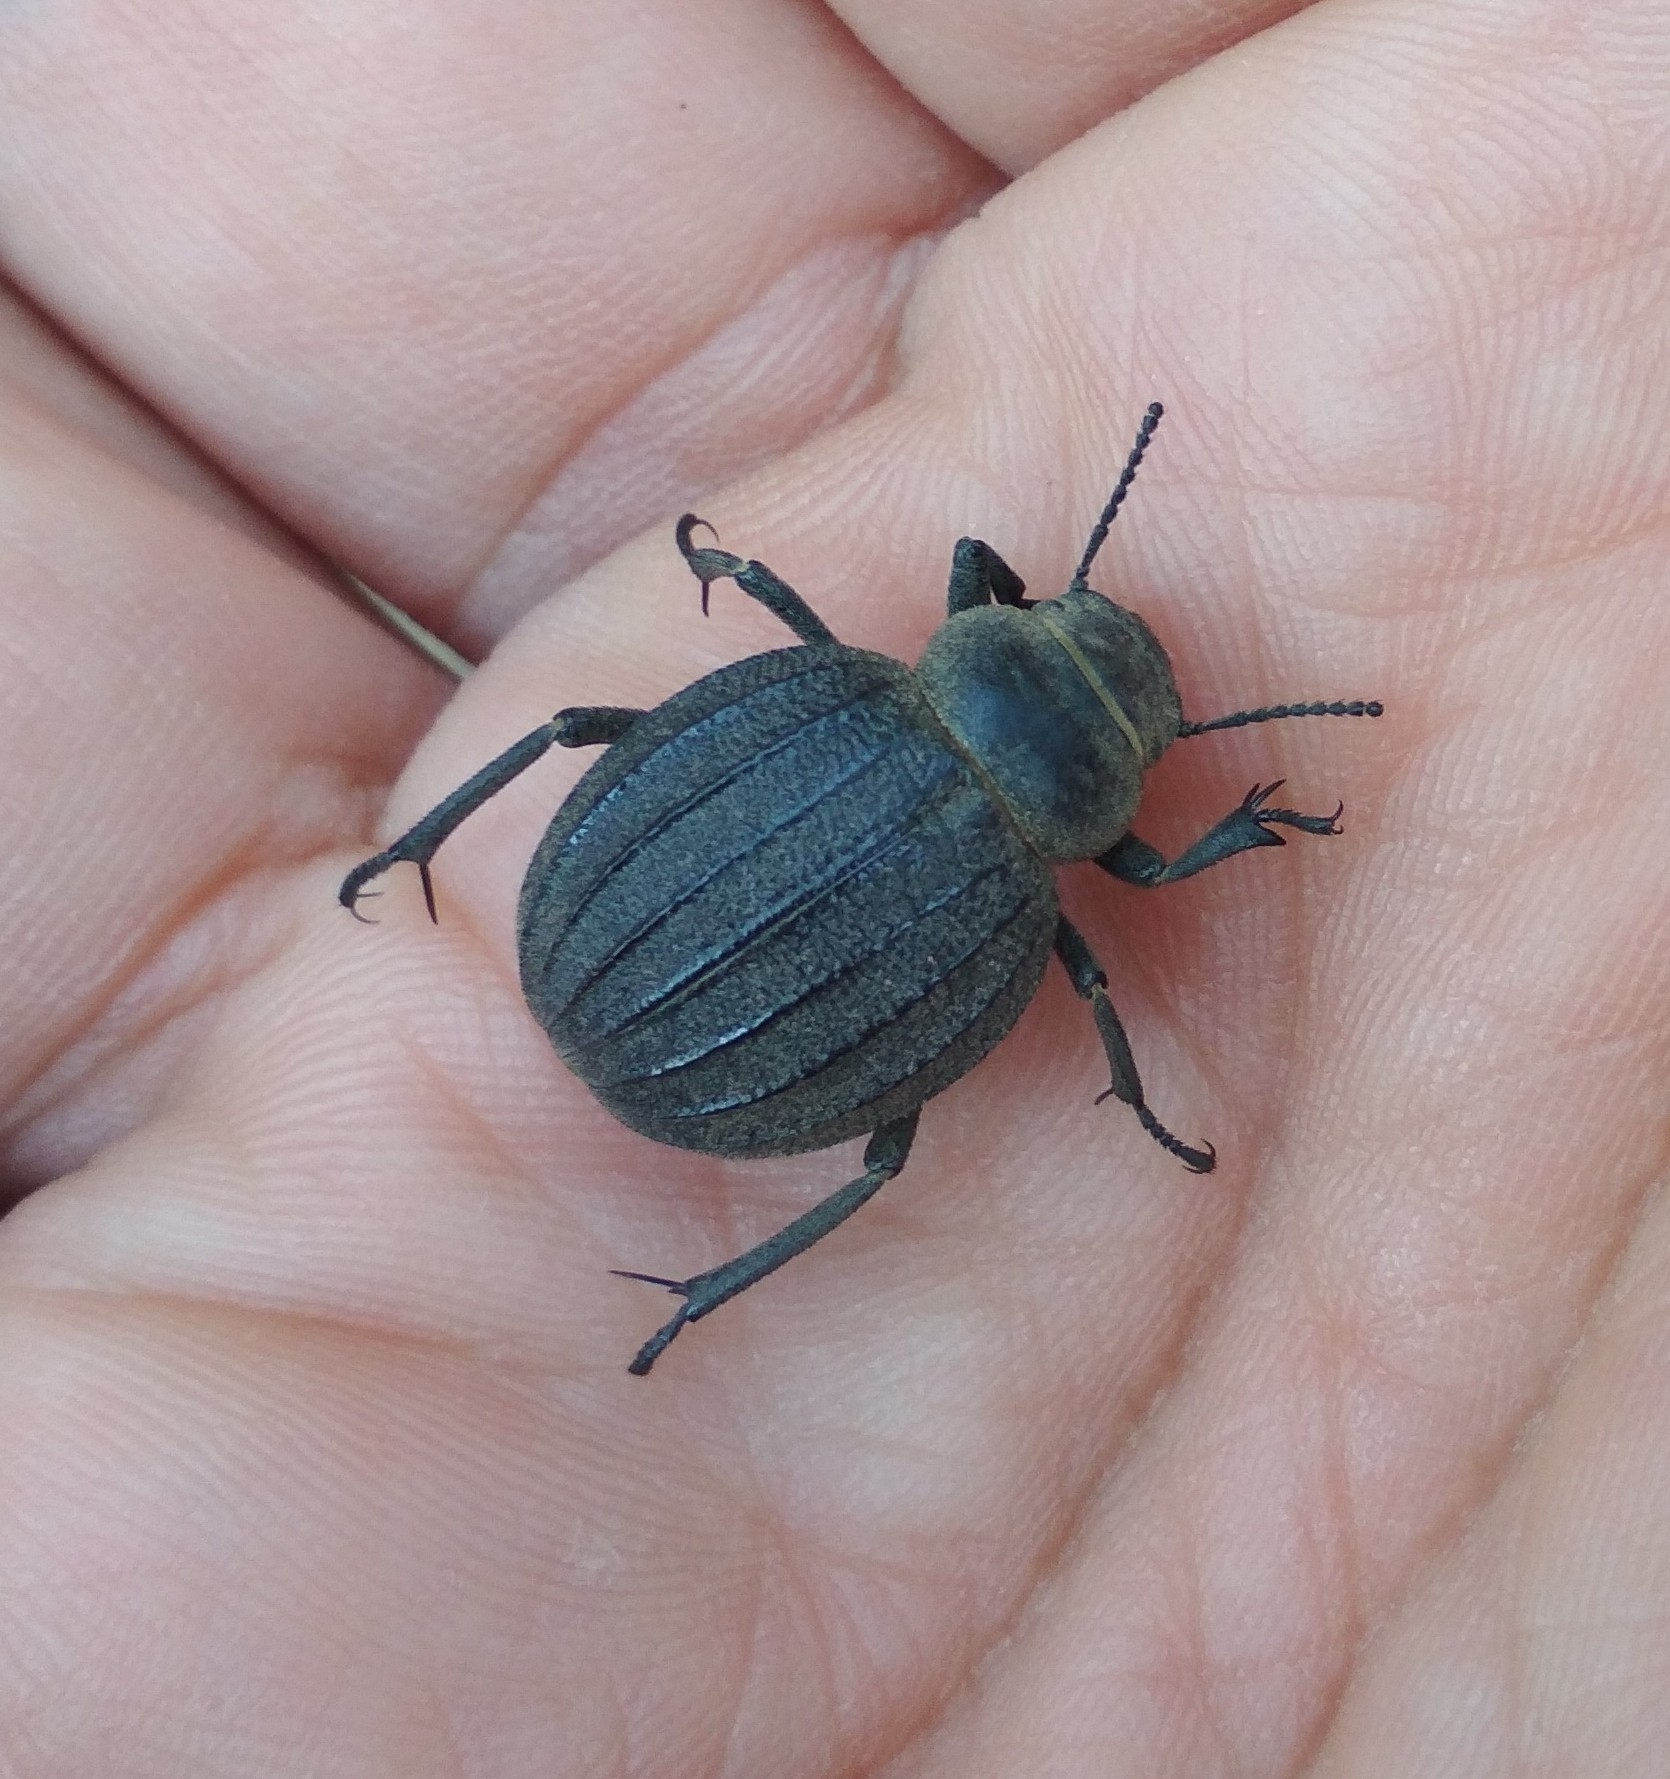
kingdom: Animalia
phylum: Arthropoda
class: Insecta
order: Coleoptera
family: Tenebrionidae
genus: Pimelia
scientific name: Pimelia bipunctata
